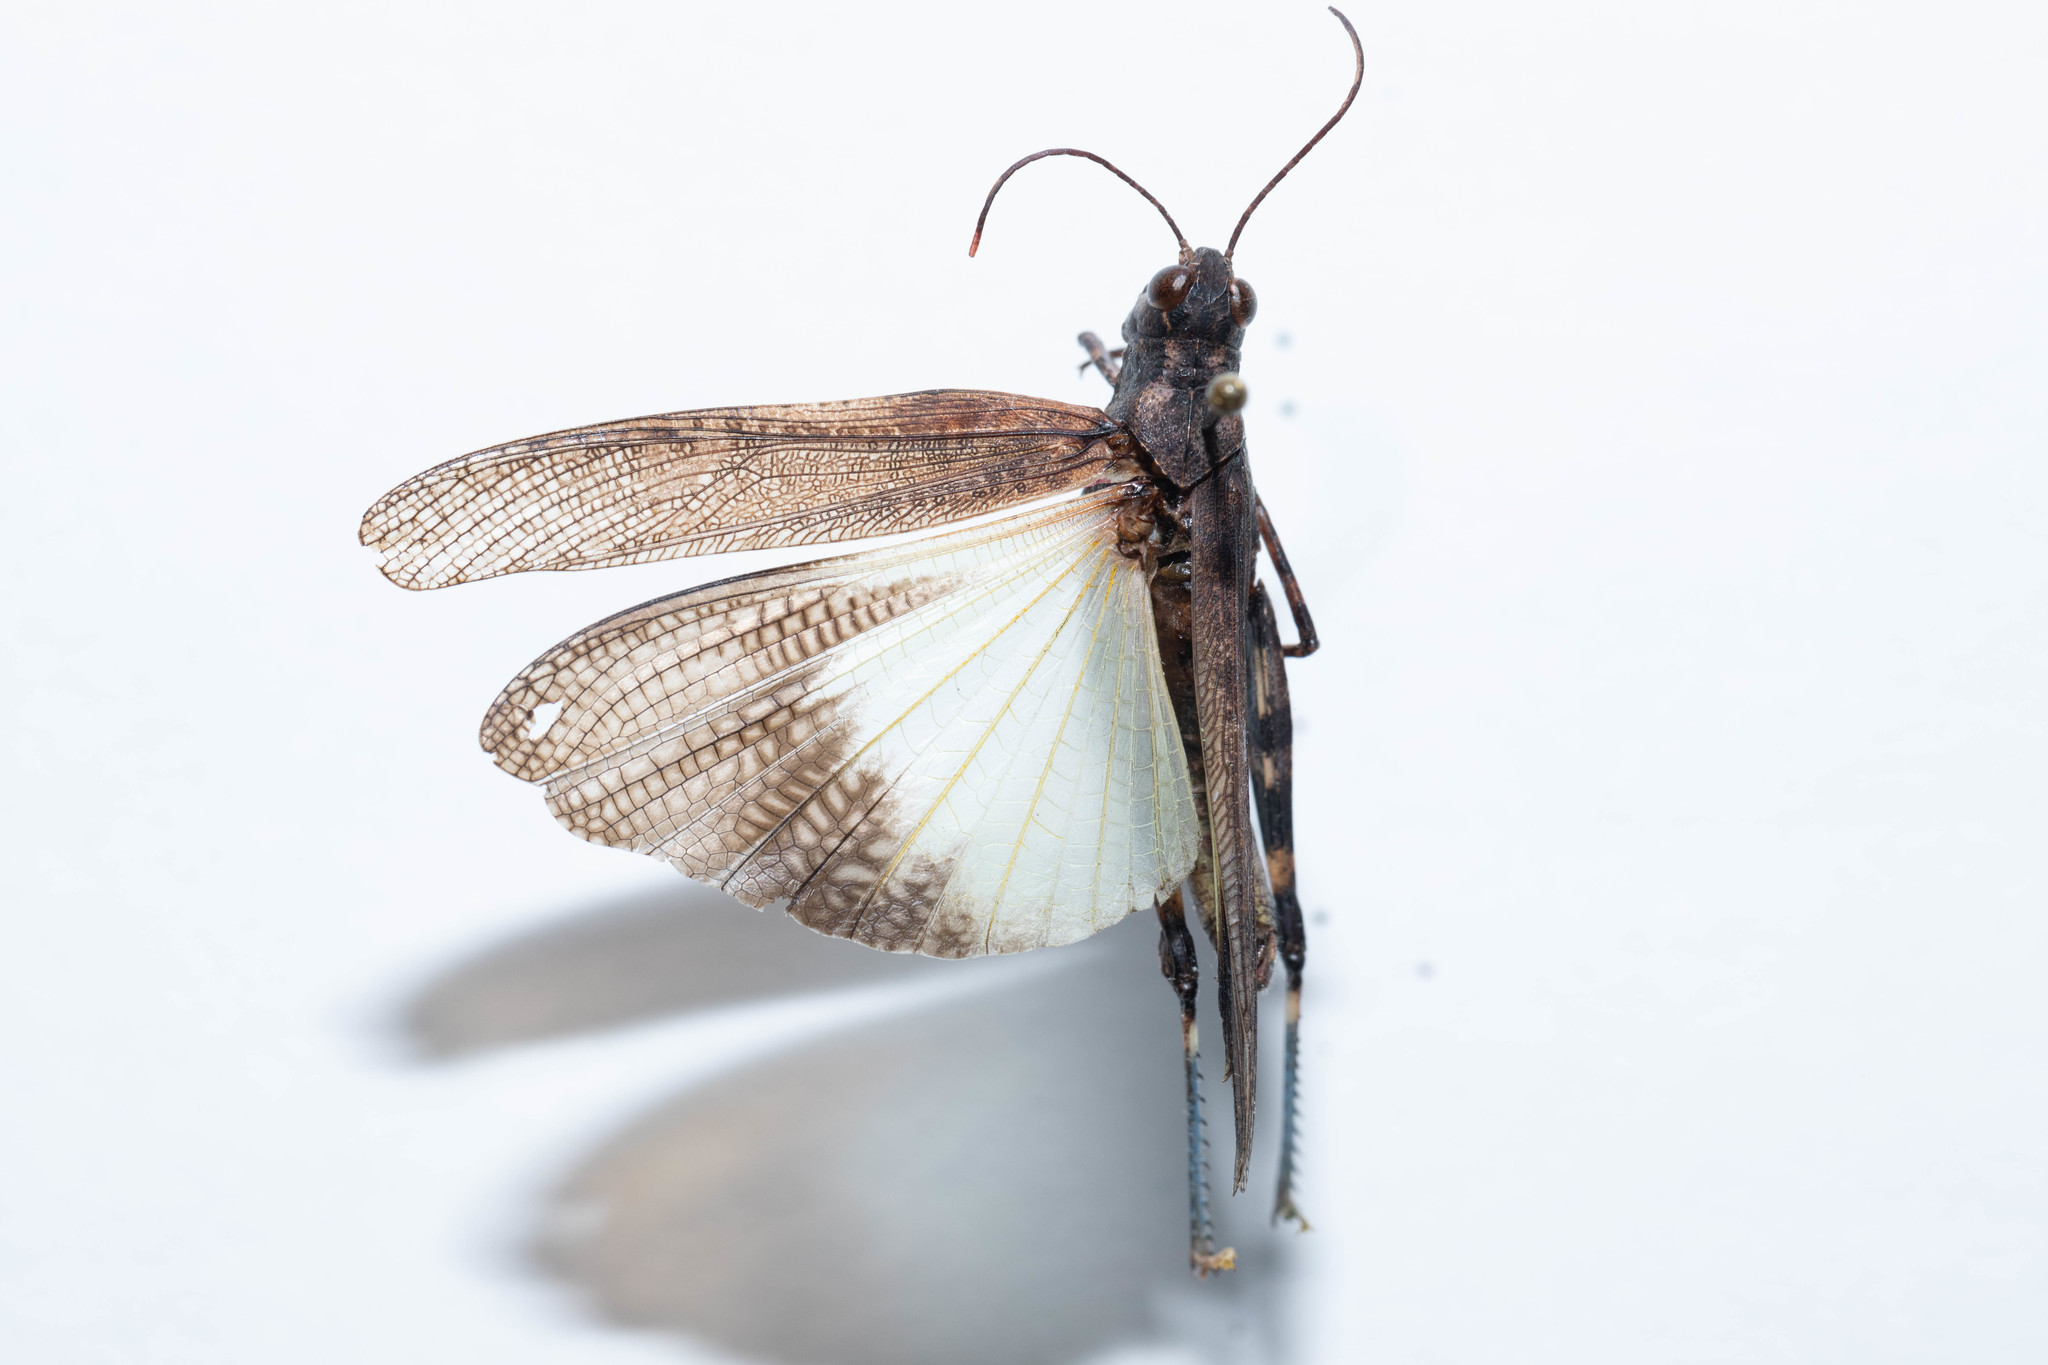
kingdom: Animalia
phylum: Arthropoda
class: Insecta
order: Orthoptera
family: Acrididae
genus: Trimerotropis
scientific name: Trimerotropis verruculata
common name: Crackling forest grasshopper
